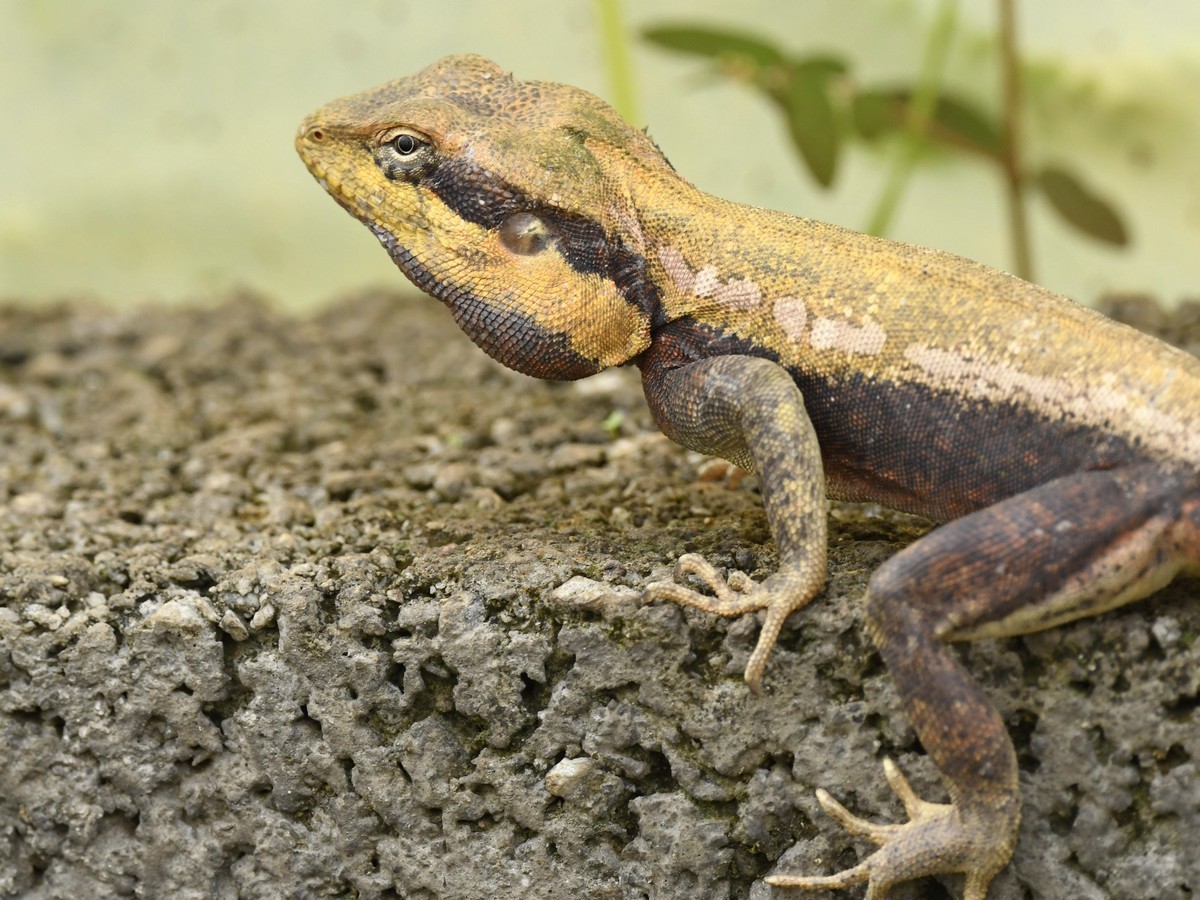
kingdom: Animalia
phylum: Chordata
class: Squamata
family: Agamidae
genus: Psammophilus
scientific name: Psammophilus dorsalis
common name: South indian rock agama
